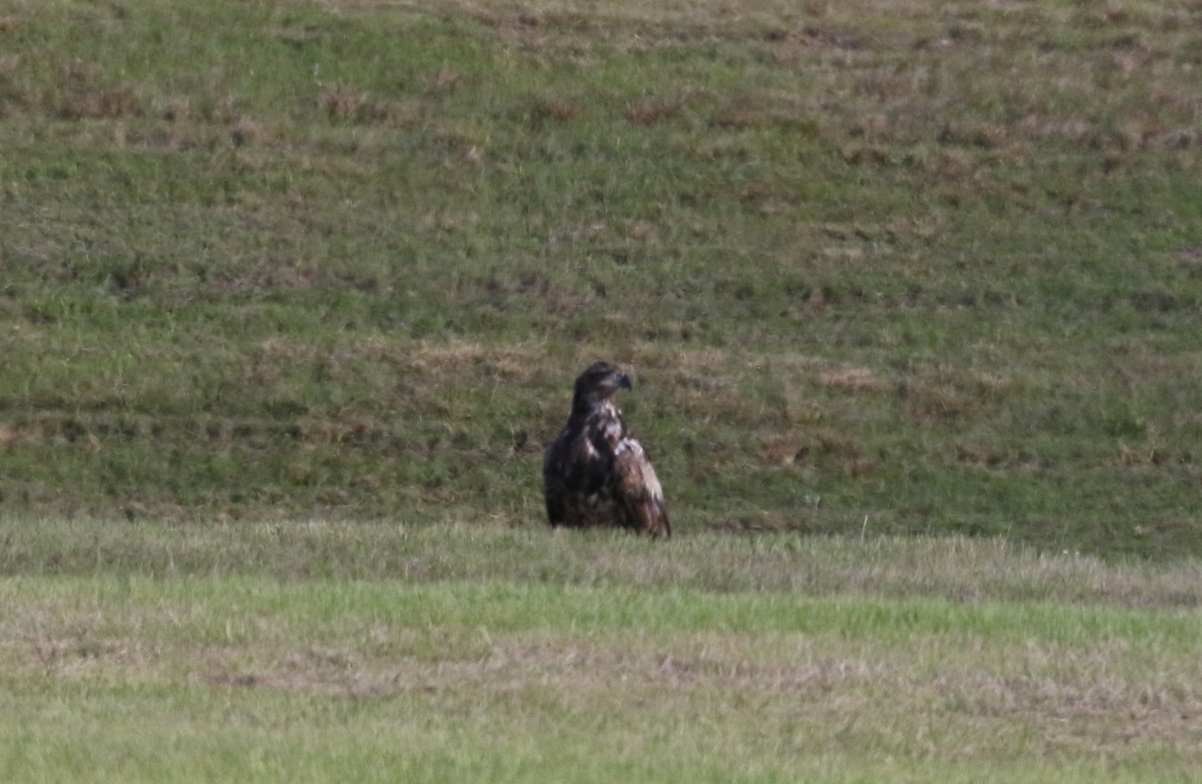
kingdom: Animalia
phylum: Chordata
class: Aves
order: Accipitriformes
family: Accipitridae
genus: Haliaeetus
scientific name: Haliaeetus leucocephalus
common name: Bald eagle
